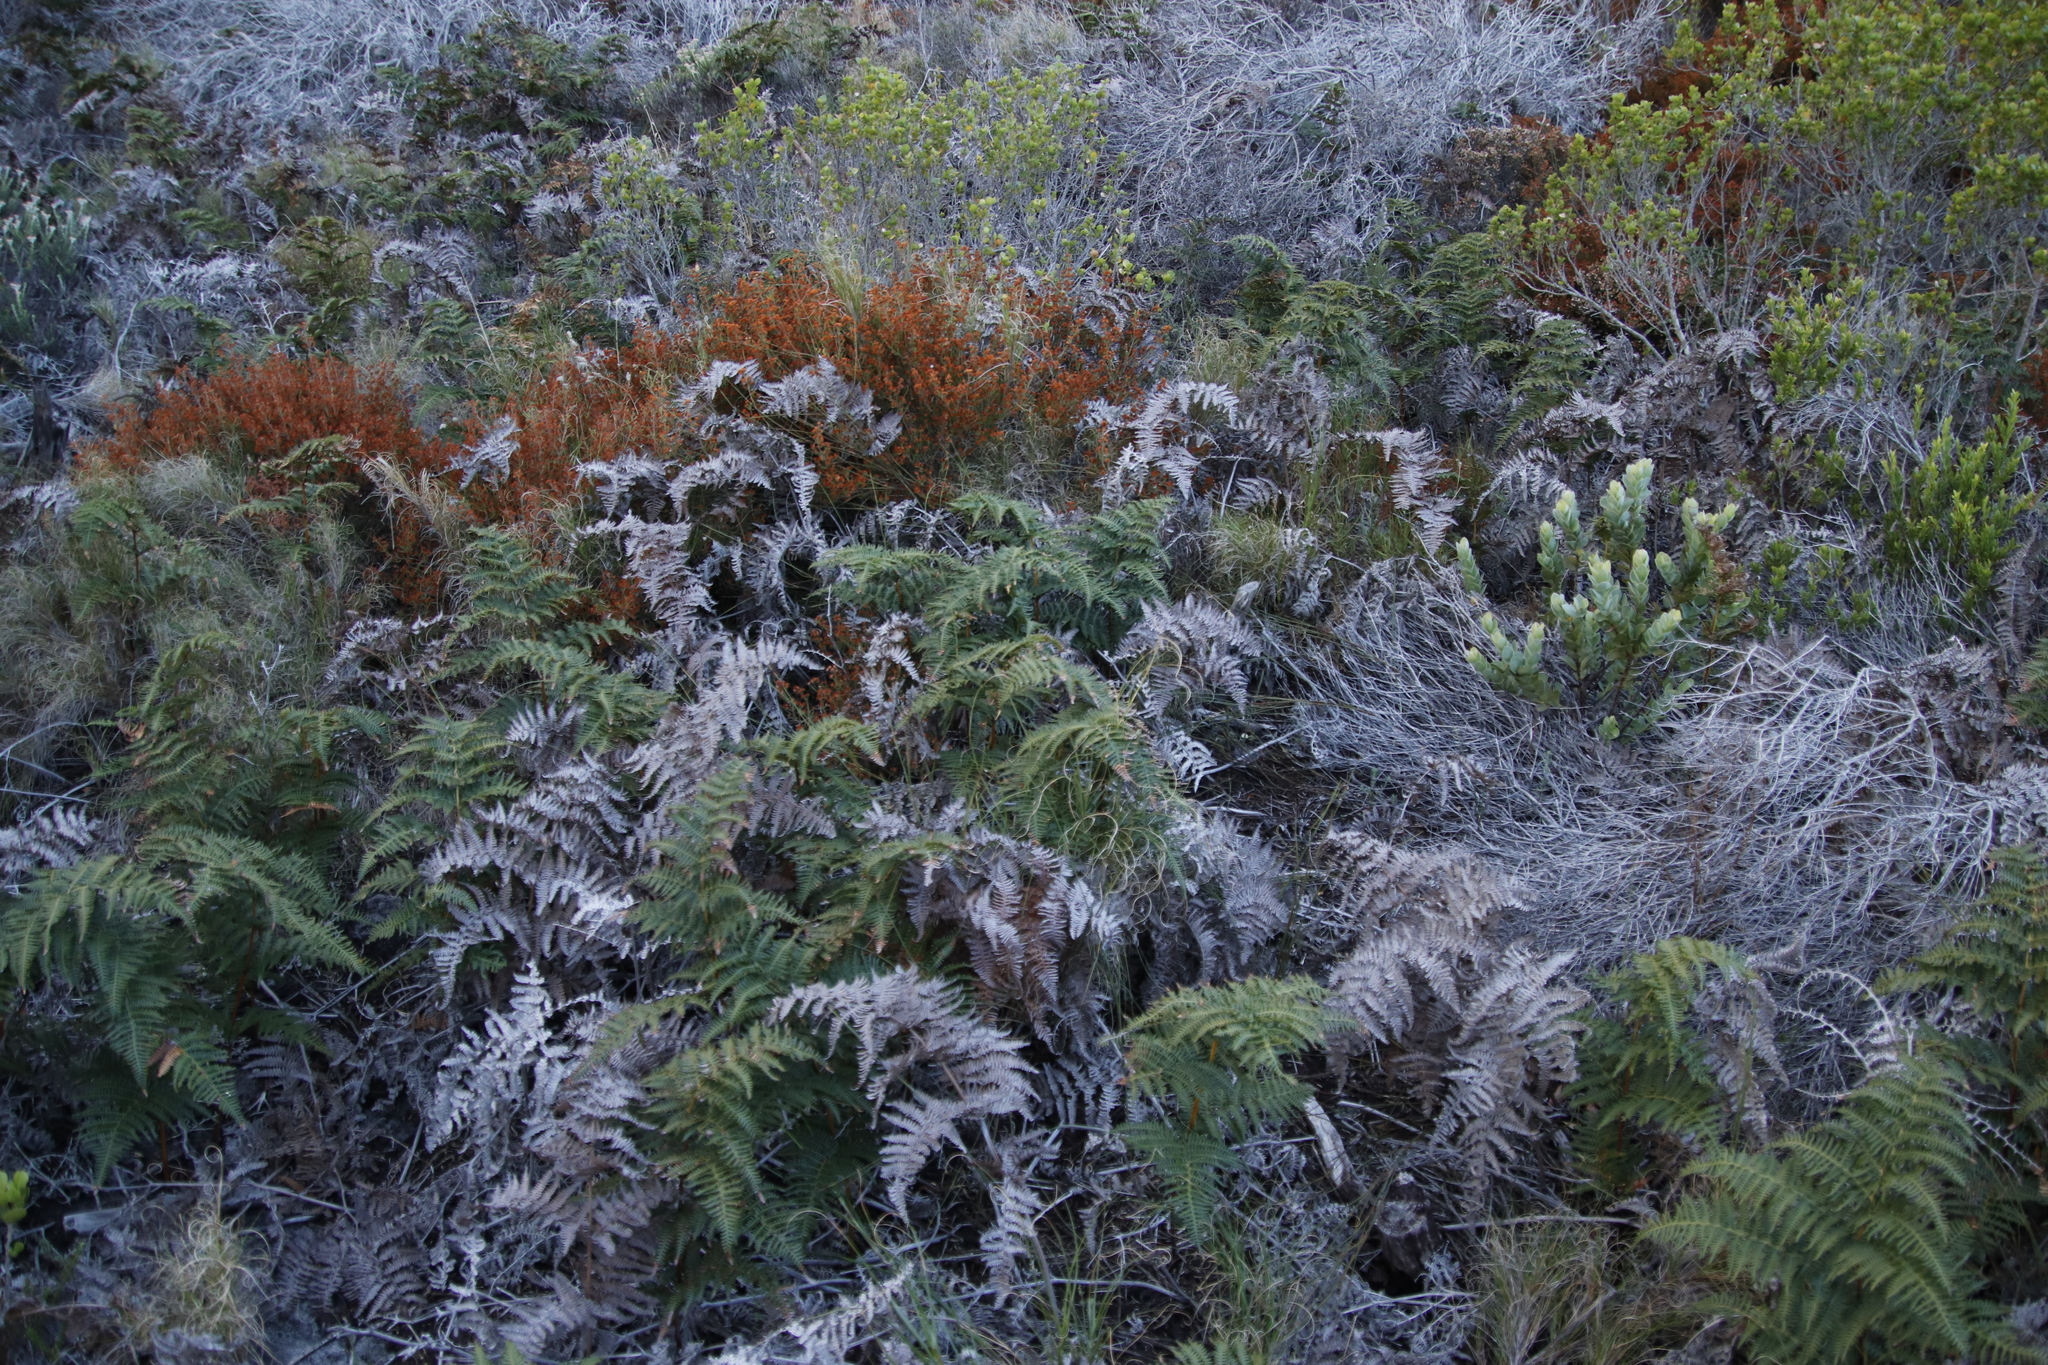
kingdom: Plantae
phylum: Tracheophyta
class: Polypodiopsida
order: Polypodiales
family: Dennstaedtiaceae
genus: Pteridium
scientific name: Pteridium aquilinum
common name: Bracken
